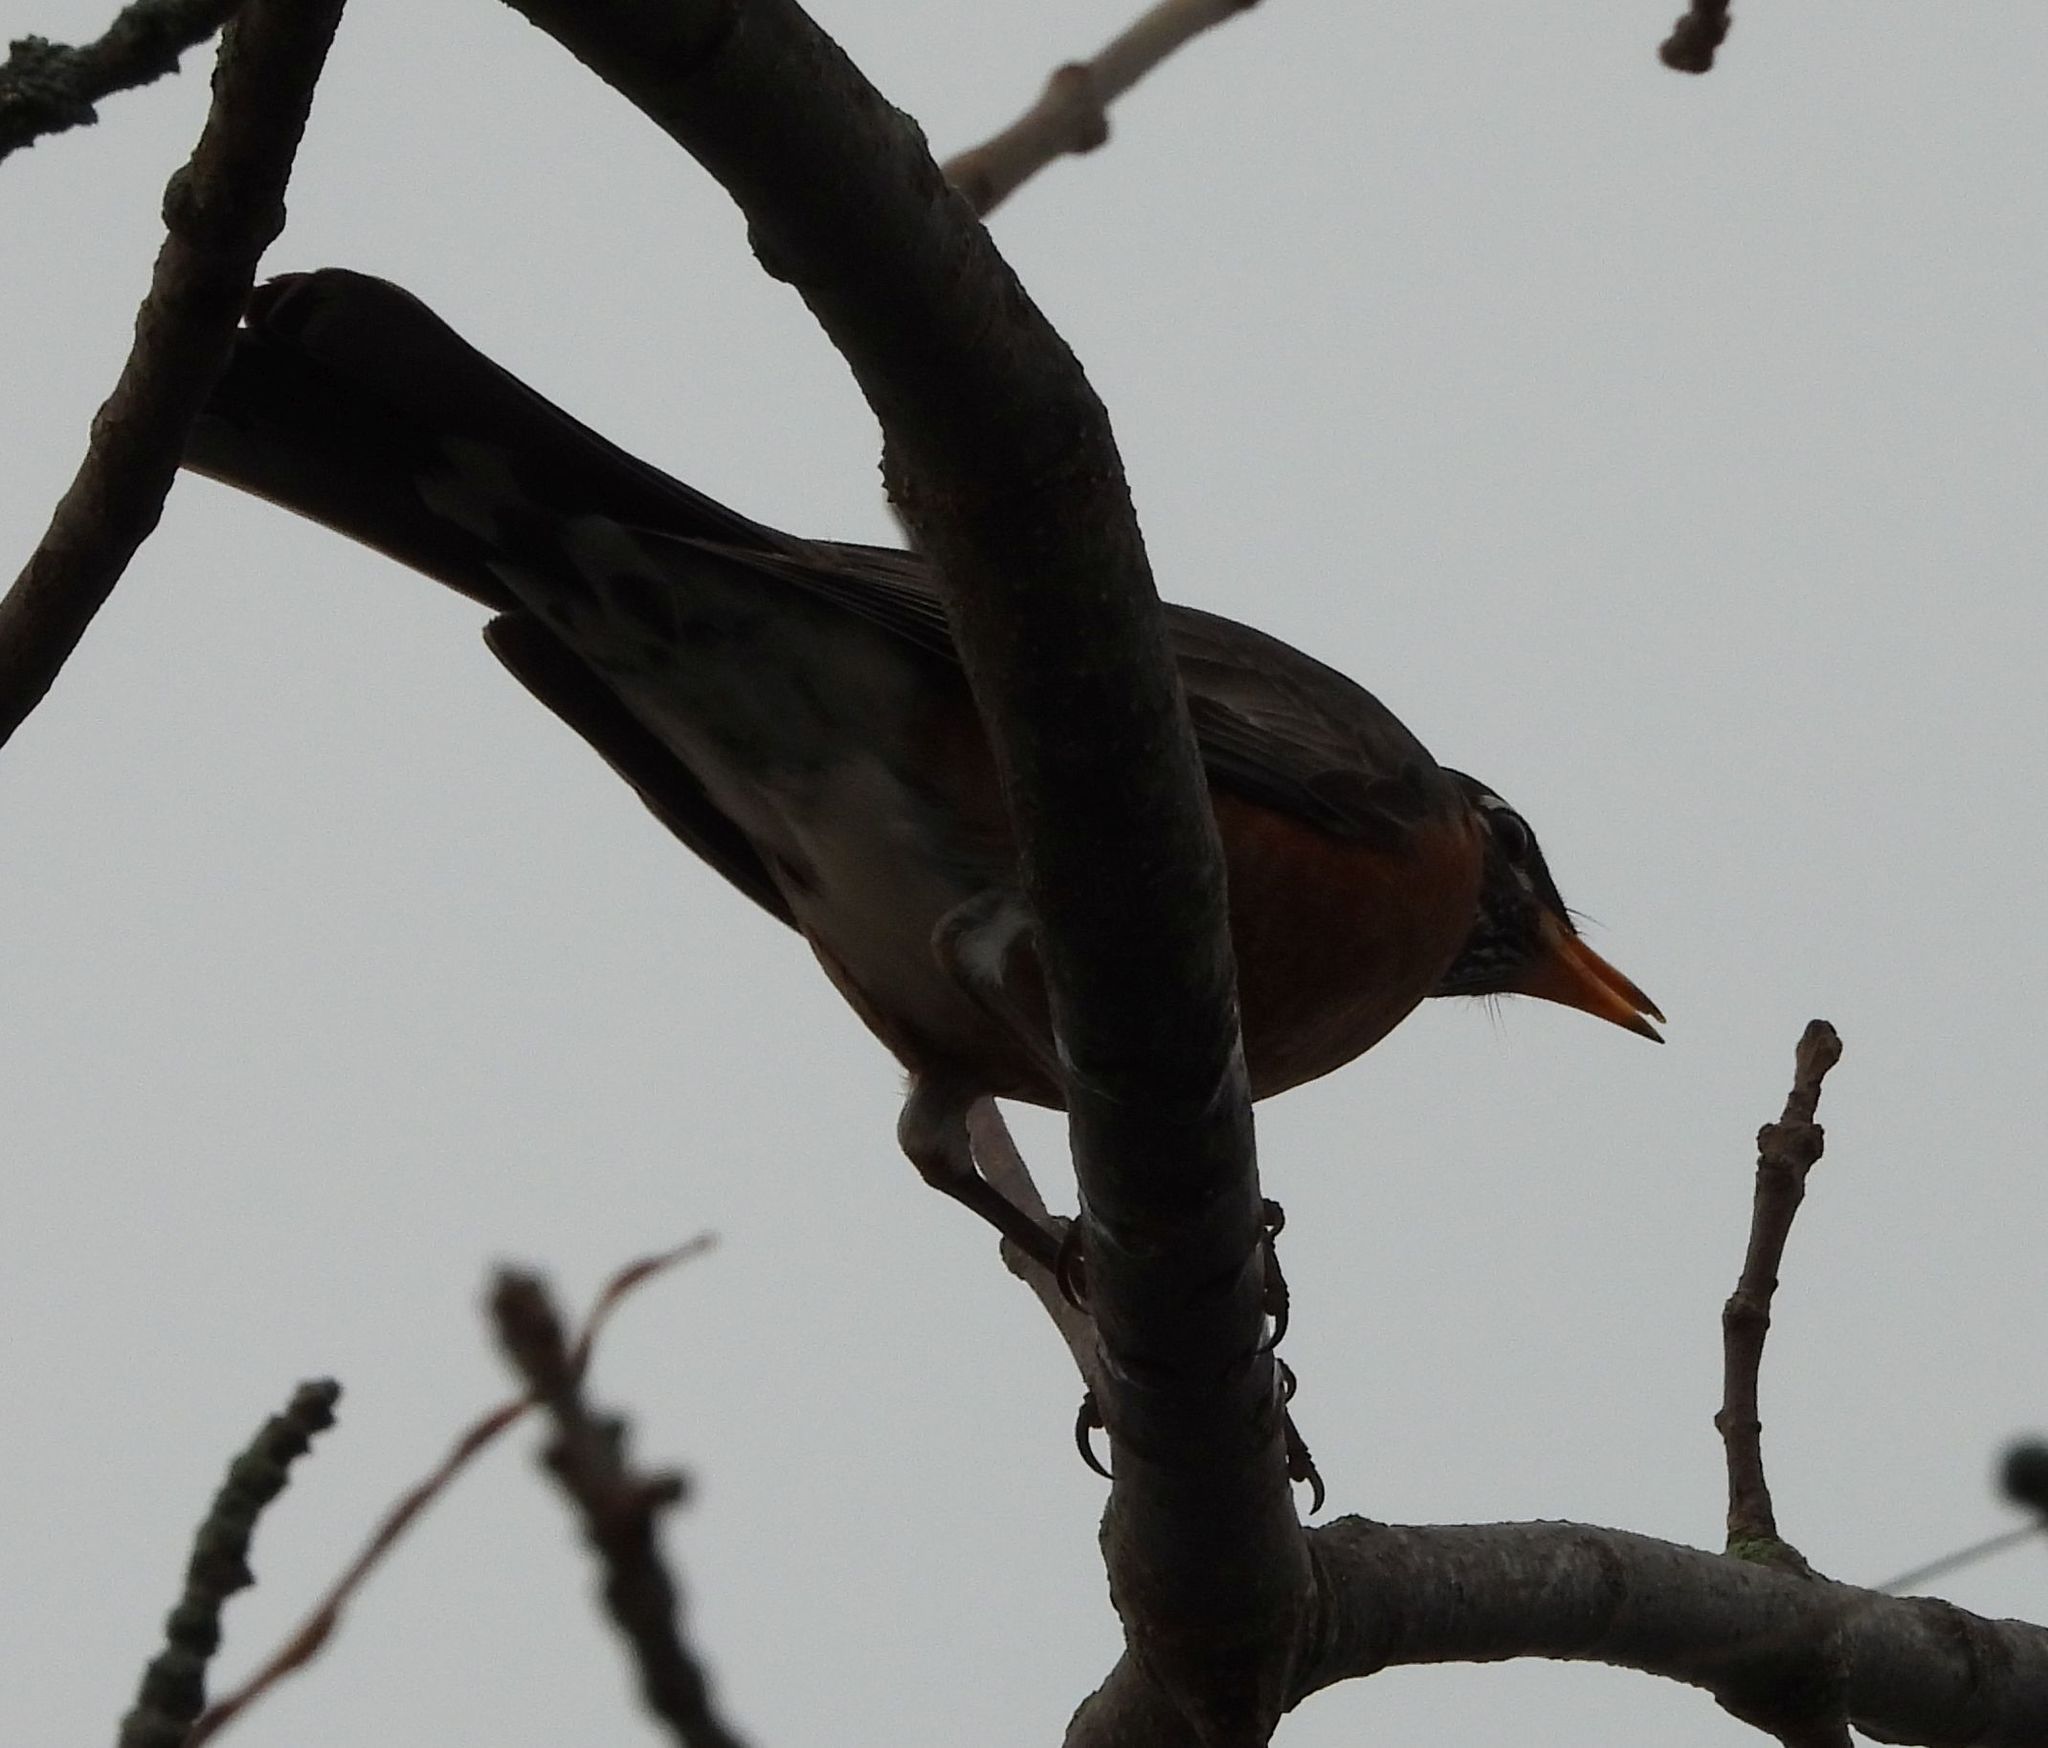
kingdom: Animalia
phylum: Chordata
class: Aves
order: Passeriformes
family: Turdidae
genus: Turdus
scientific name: Turdus migratorius
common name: American robin
